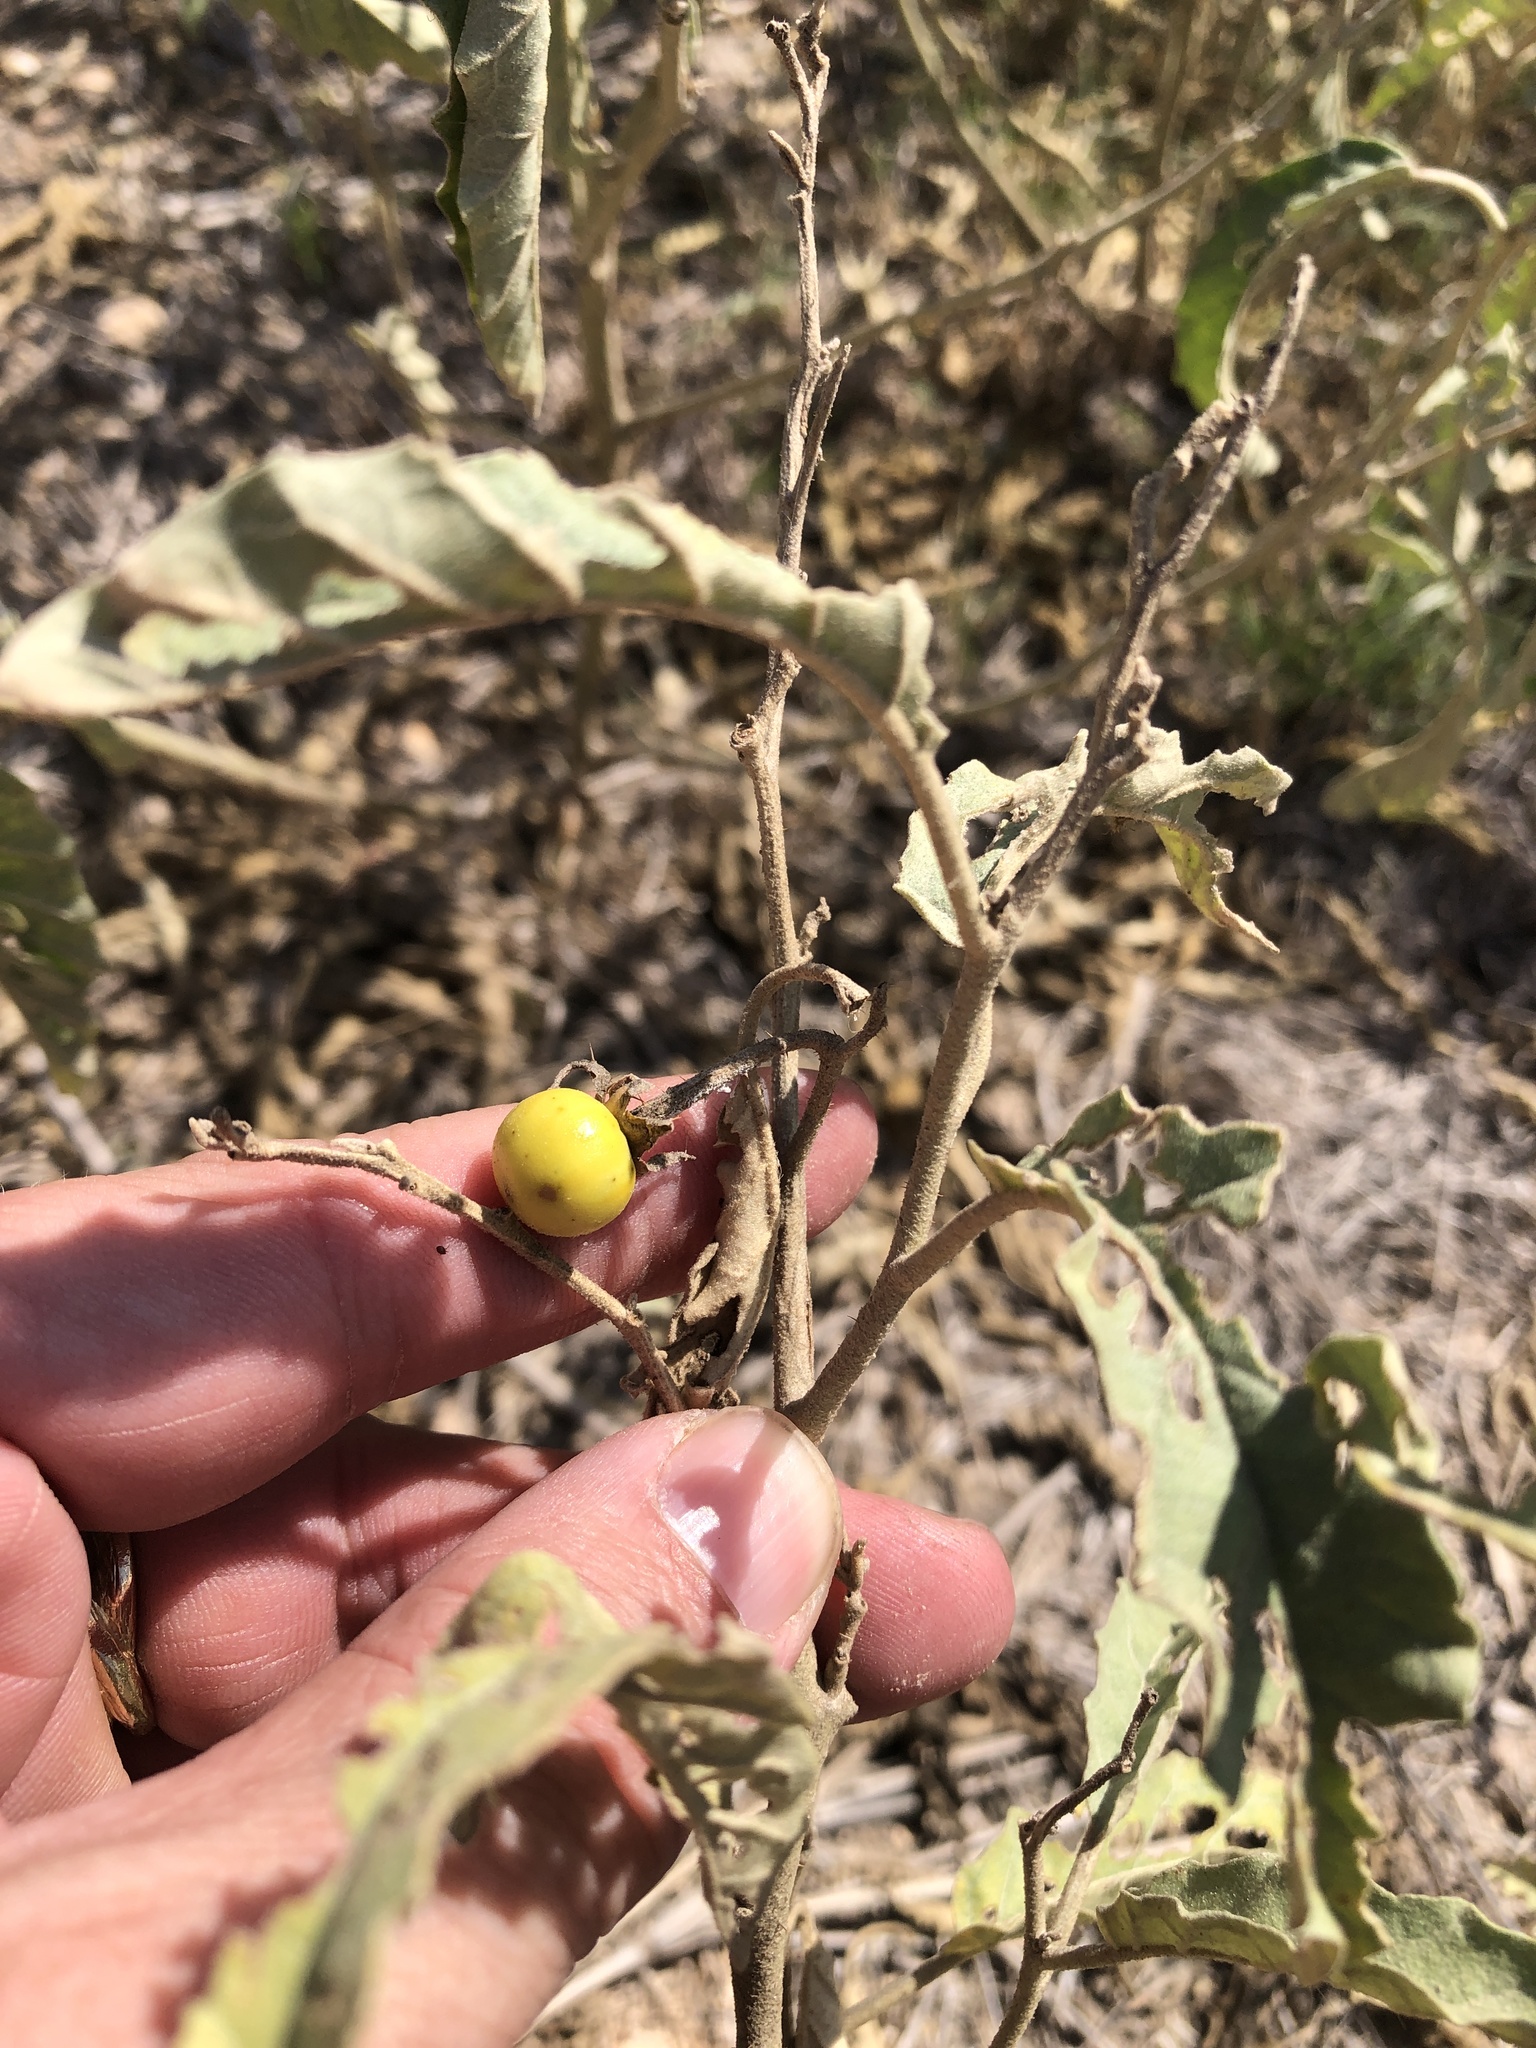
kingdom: Plantae
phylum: Tracheophyta
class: Magnoliopsida
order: Solanales
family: Solanaceae
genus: Solanum
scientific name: Solanum elaeagnifolium
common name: Silverleaf nightshade
